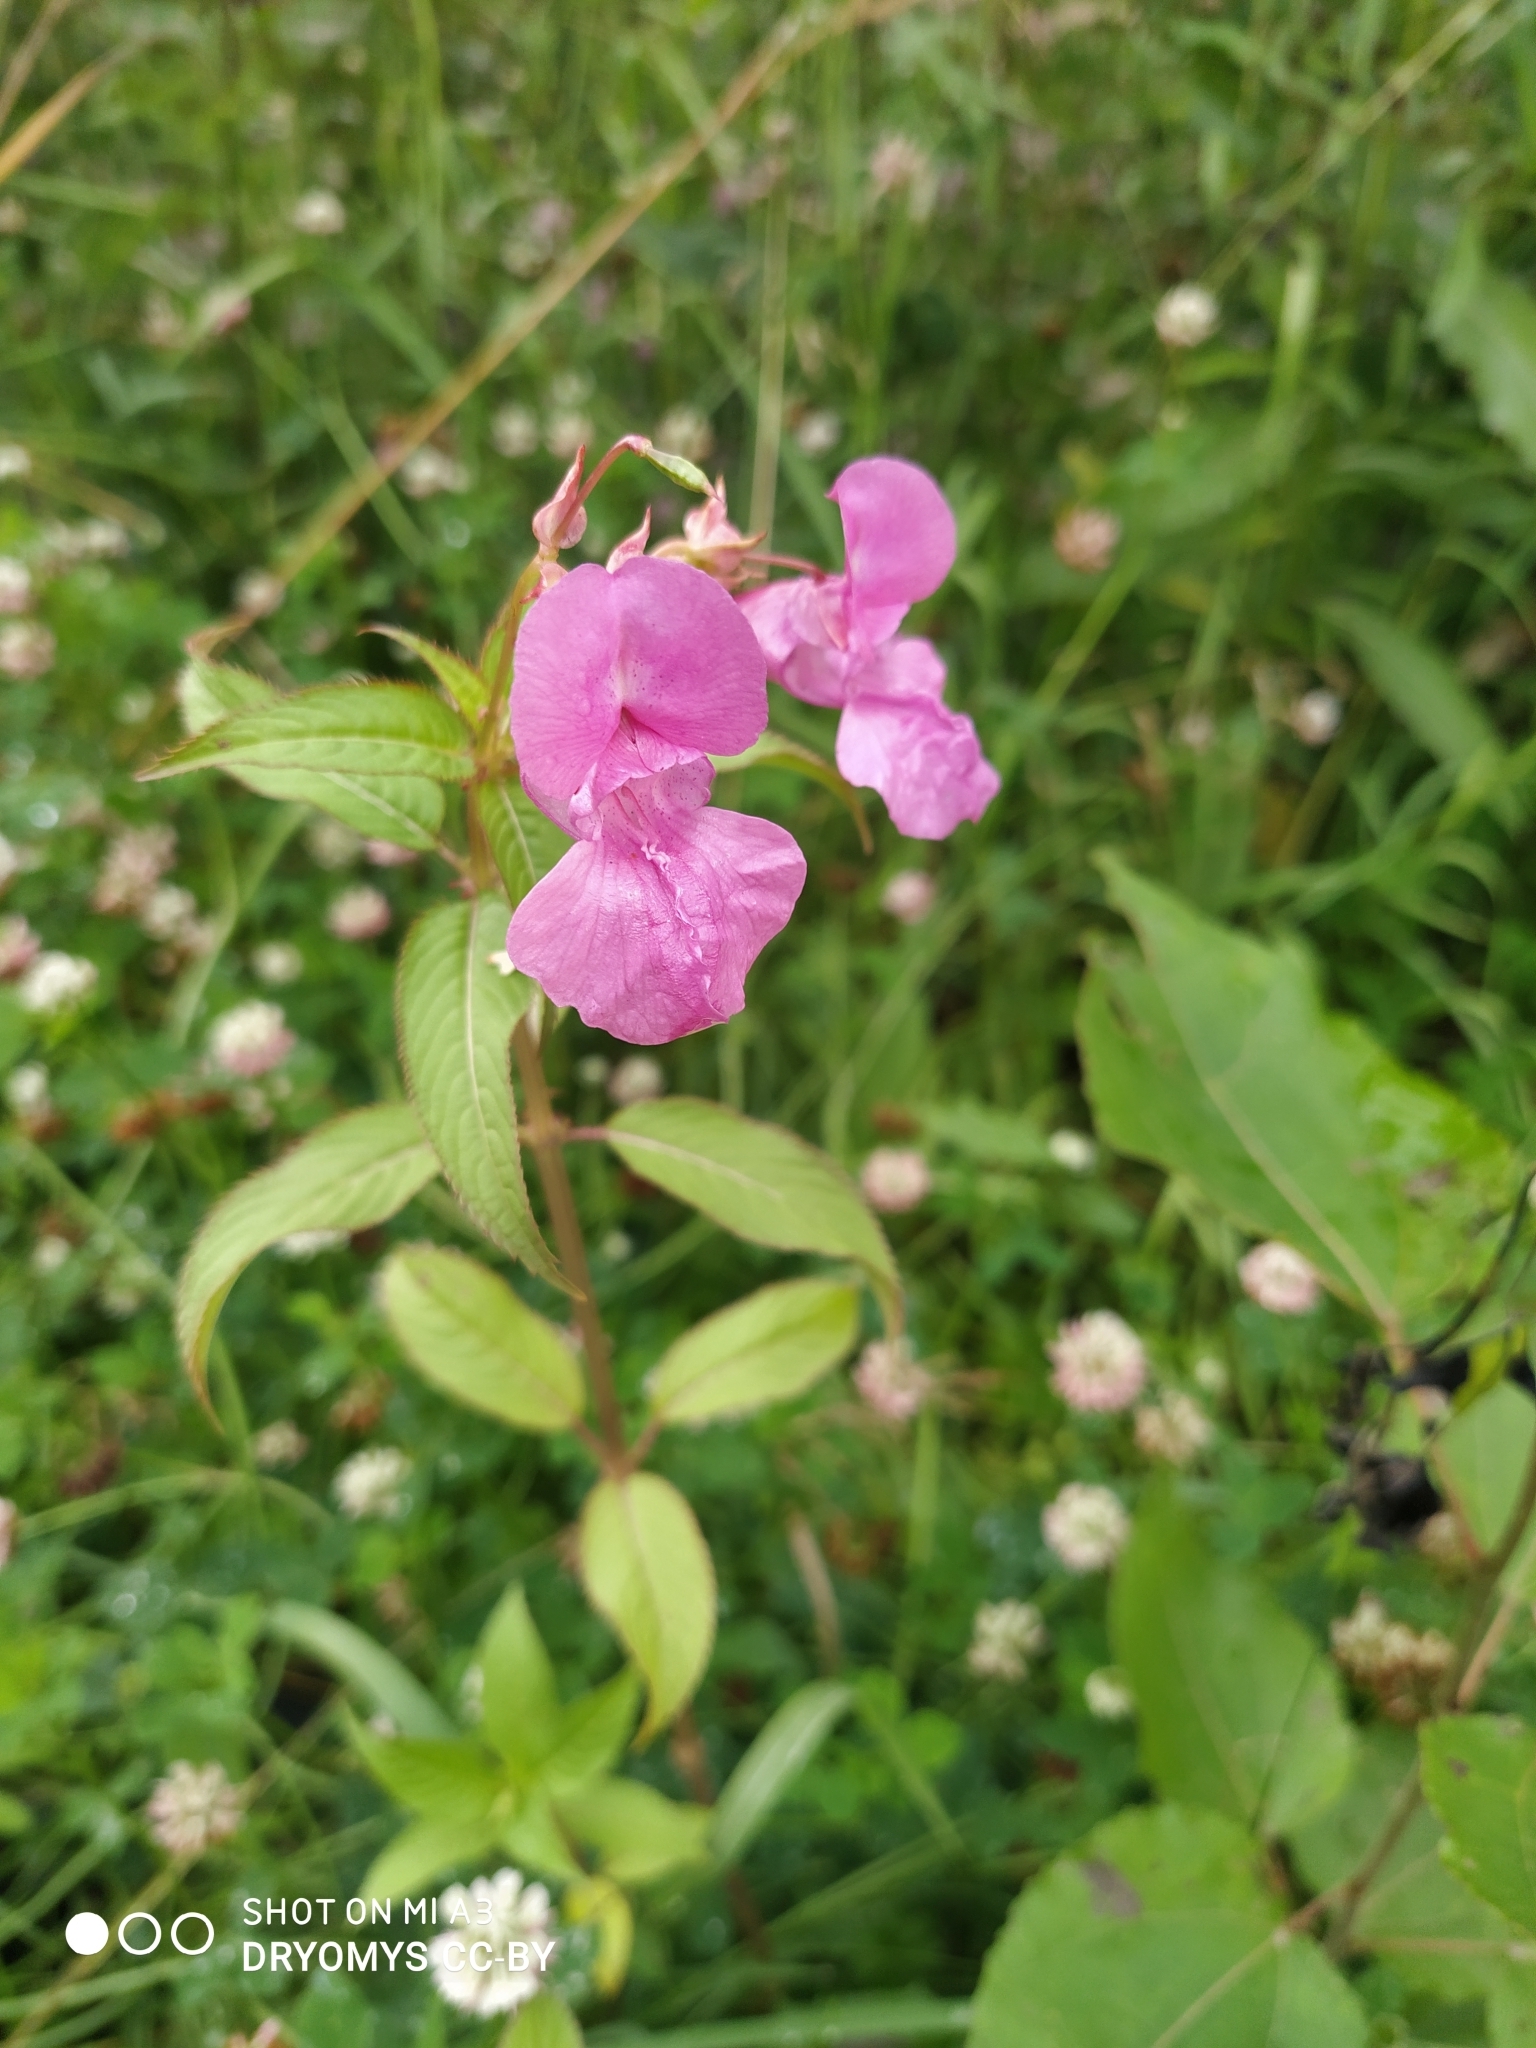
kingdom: Plantae
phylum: Tracheophyta
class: Magnoliopsida
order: Ericales
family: Balsaminaceae
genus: Impatiens
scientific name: Impatiens glandulifera
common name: Himalayan balsam
